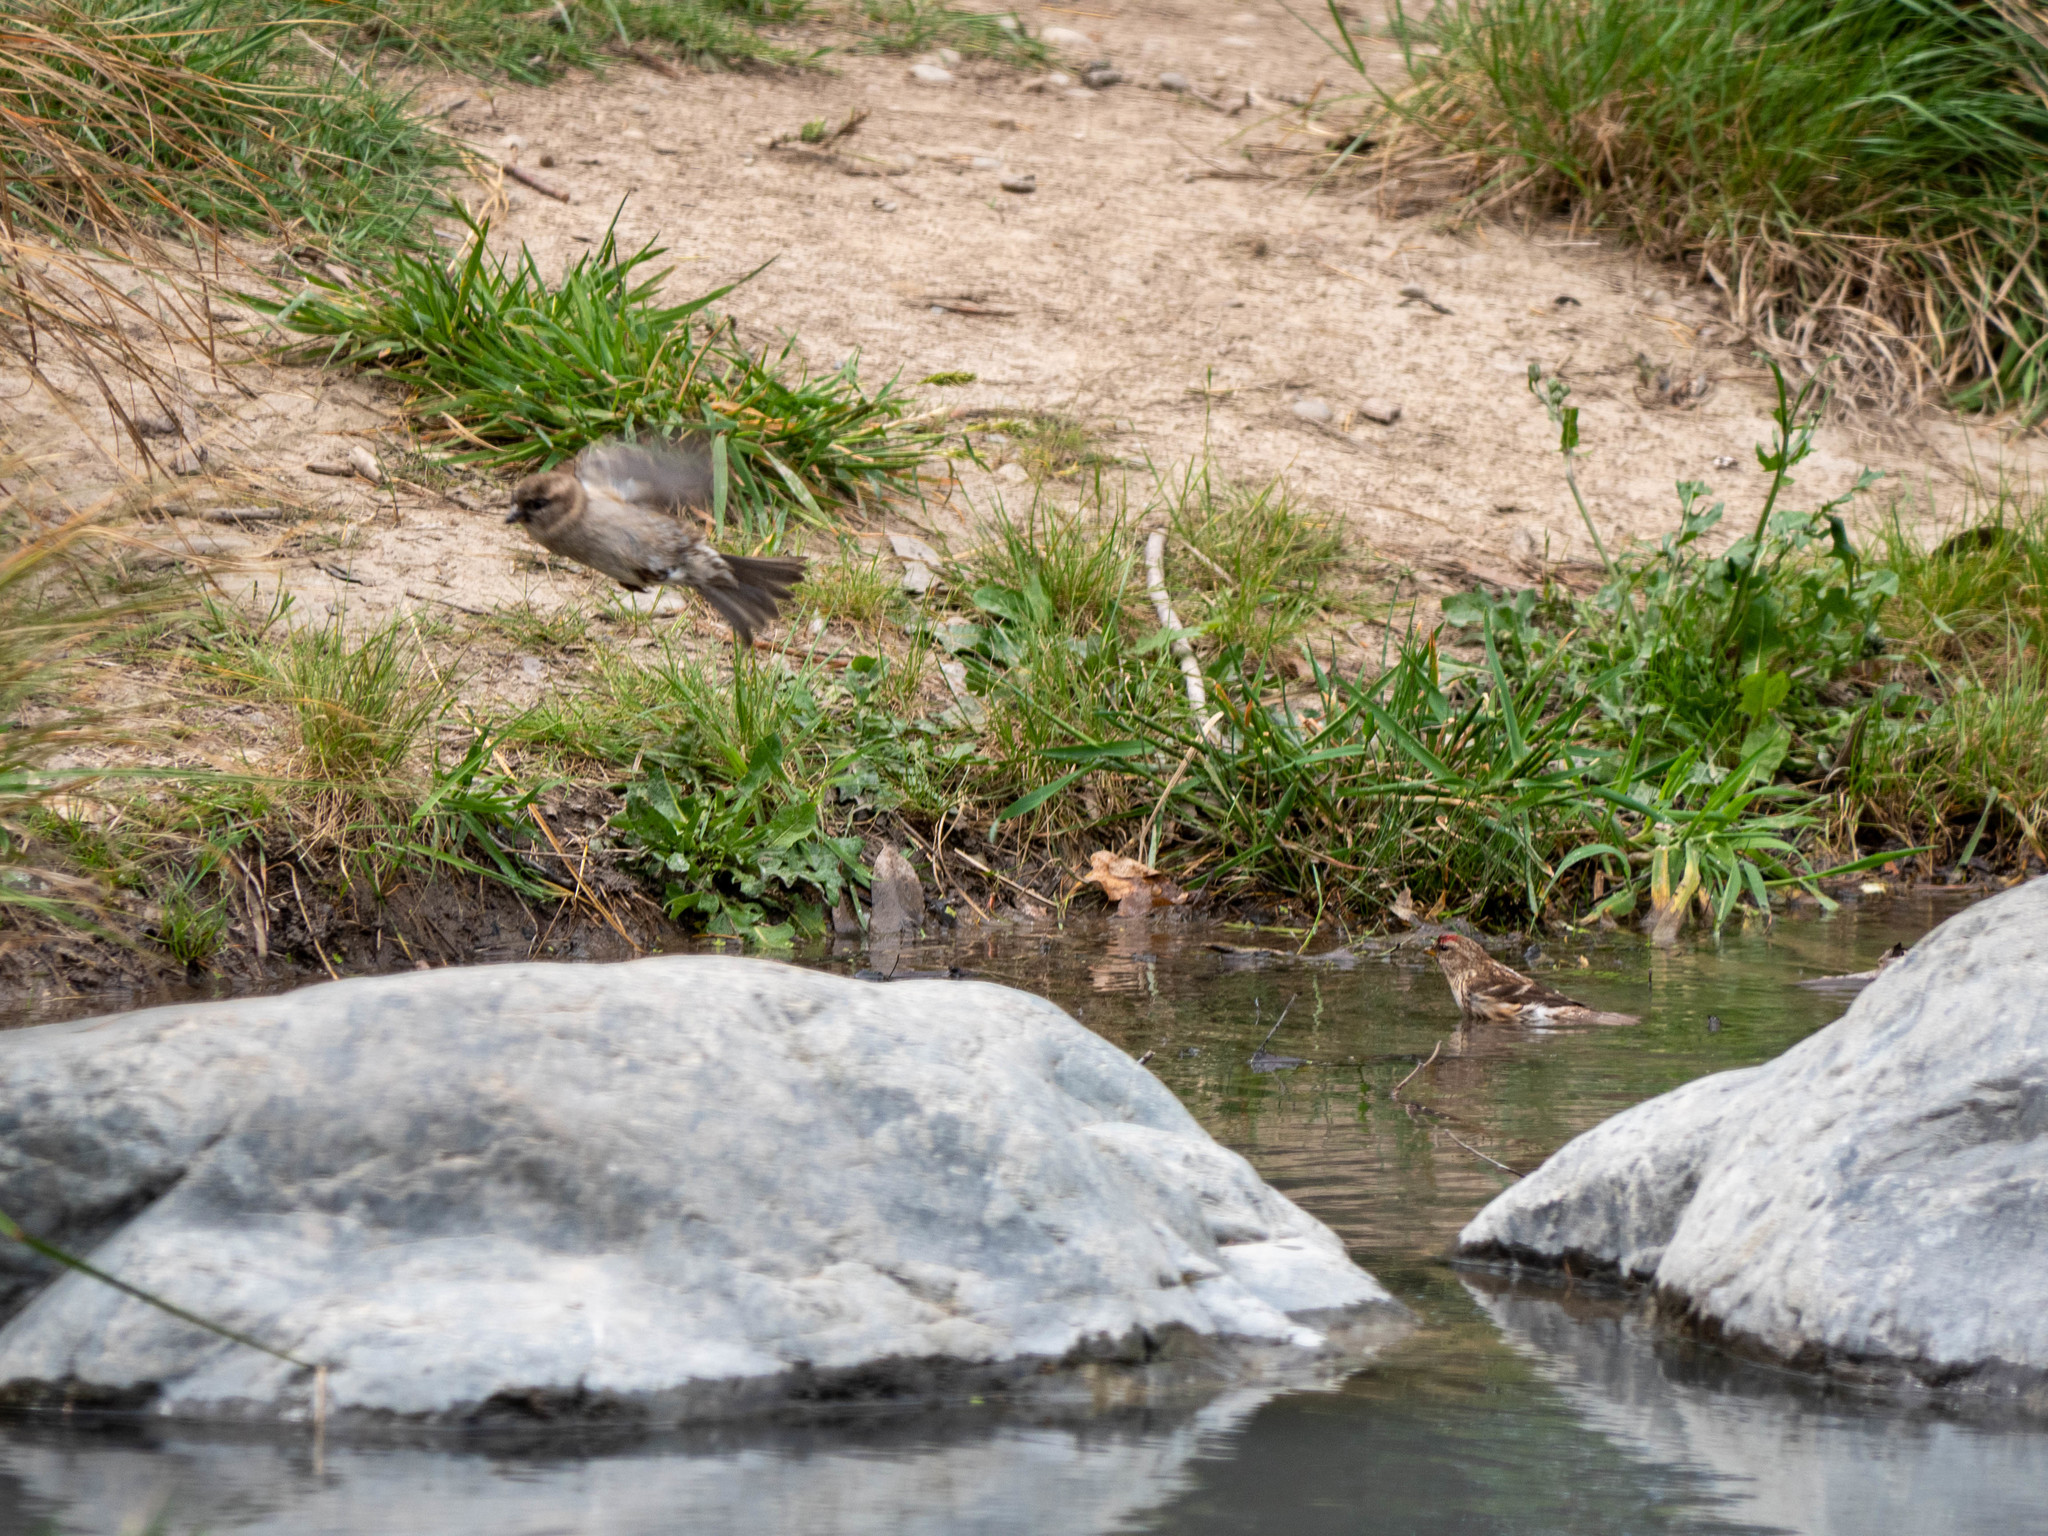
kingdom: Animalia
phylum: Chordata
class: Aves
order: Passeriformes
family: Fringillidae
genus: Acanthis
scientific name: Acanthis flammea
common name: Common redpoll
